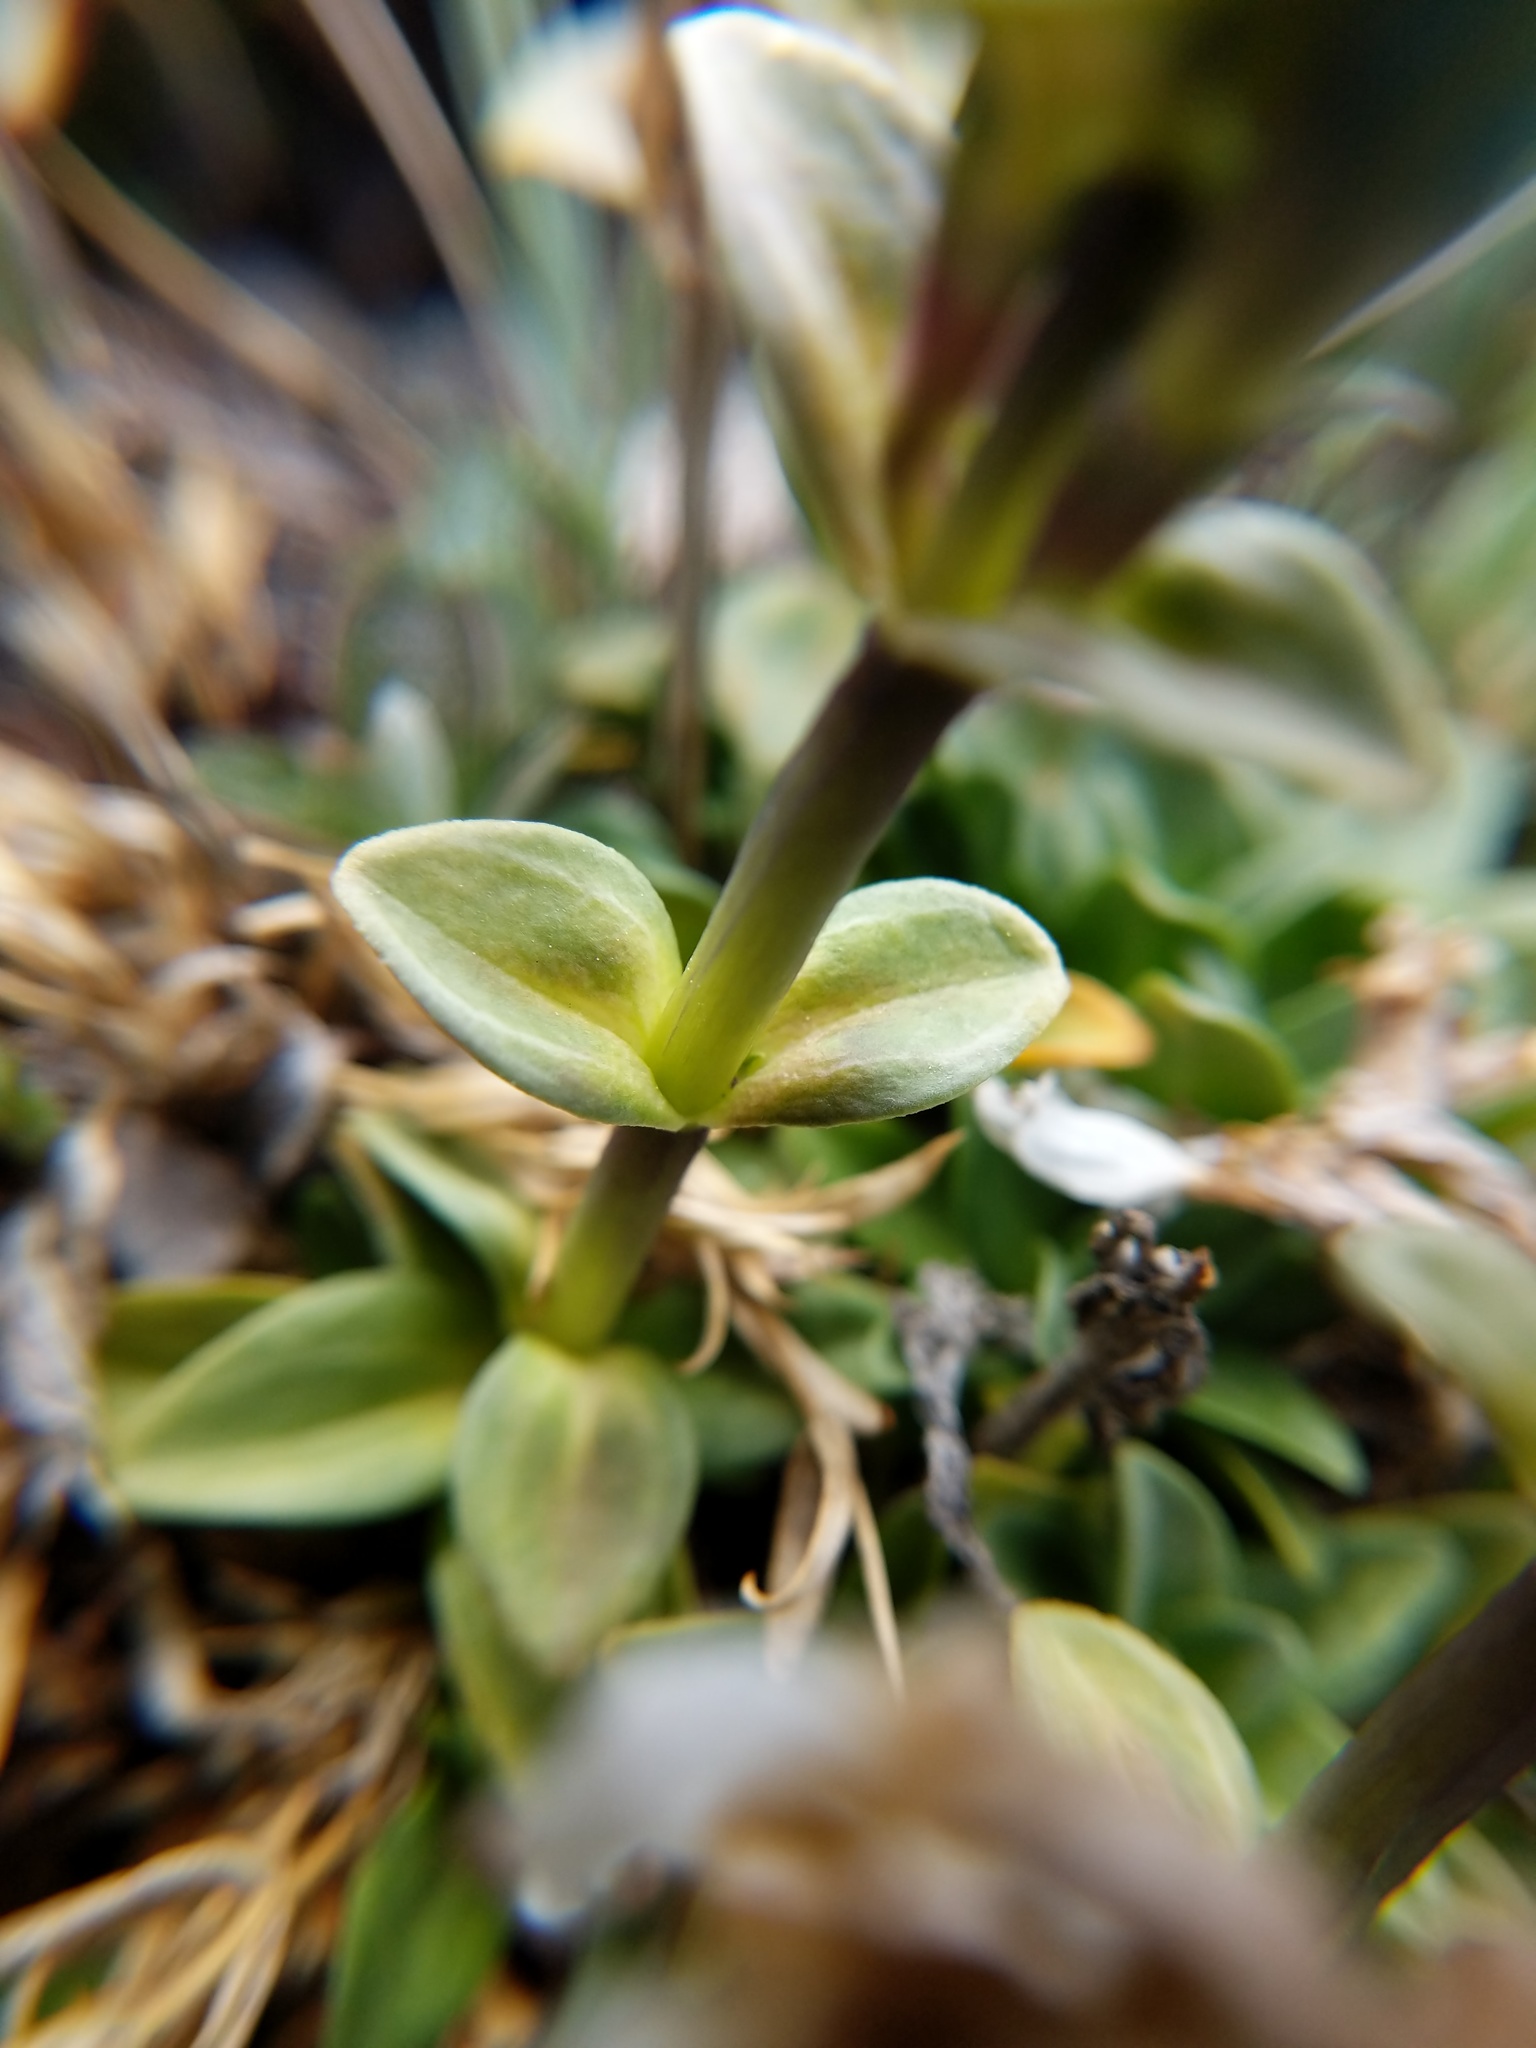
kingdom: Plantae
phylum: Tracheophyta
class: Magnoliopsida
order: Gentianales
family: Gentianaceae
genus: Gentiana
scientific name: Gentiana glauca
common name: Alpine gentian
